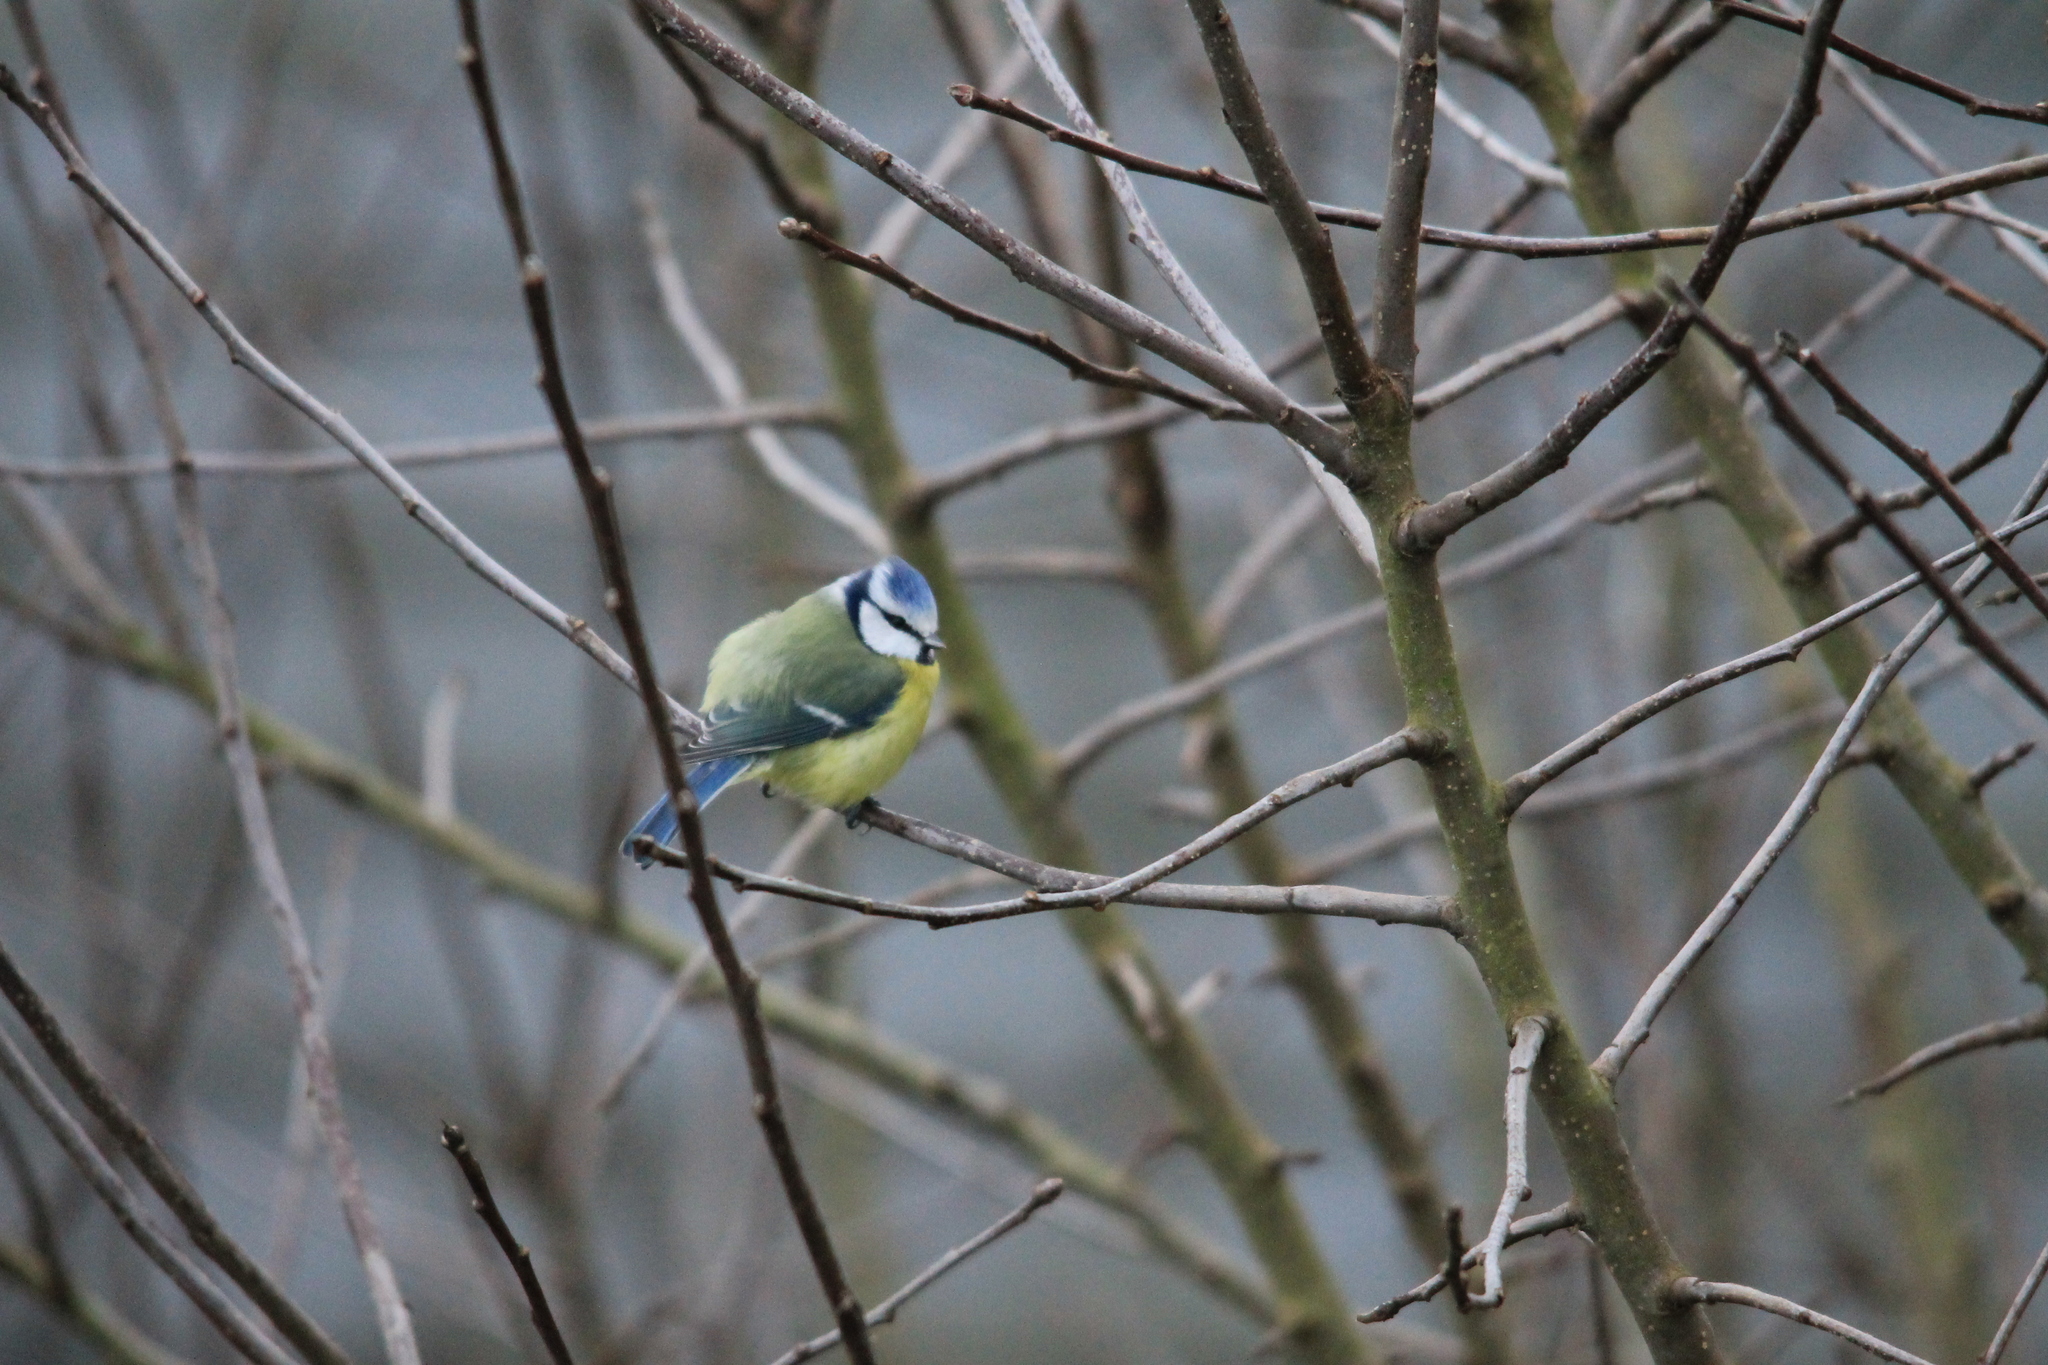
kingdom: Animalia
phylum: Chordata
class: Aves
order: Passeriformes
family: Paridae
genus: Cyanistes
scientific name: Cyanistes caeruleus
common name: Eurasian blue tit
